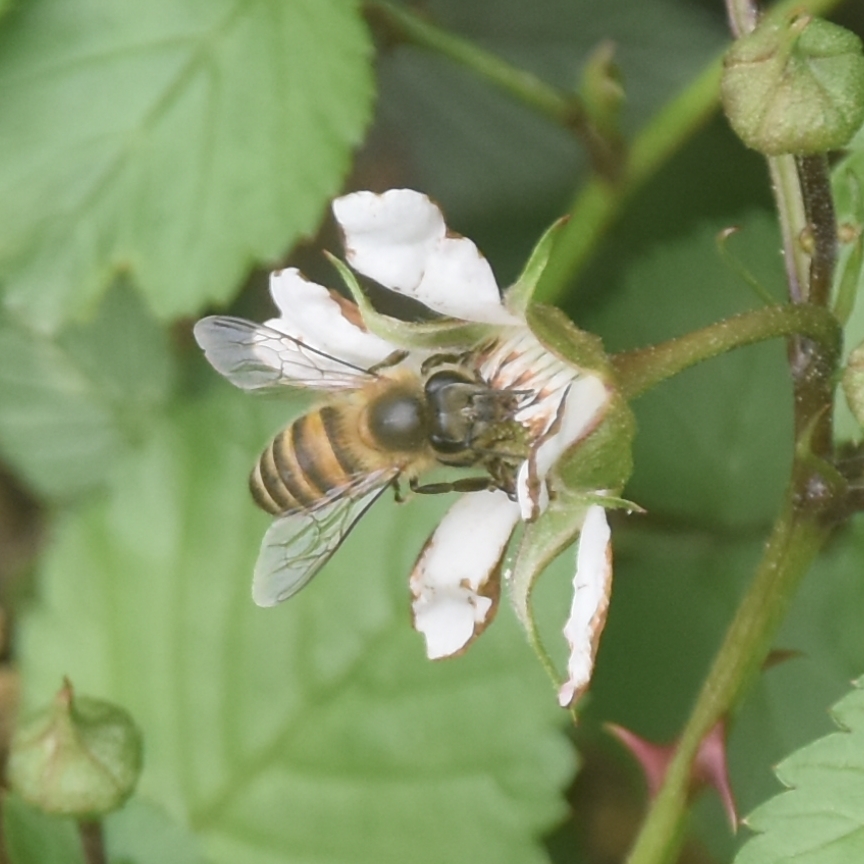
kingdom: Animalia
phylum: Arthropoda
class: Insecta
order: Hymenoptera
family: Apidae
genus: Apis
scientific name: Apis cerana
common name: Honey bee
